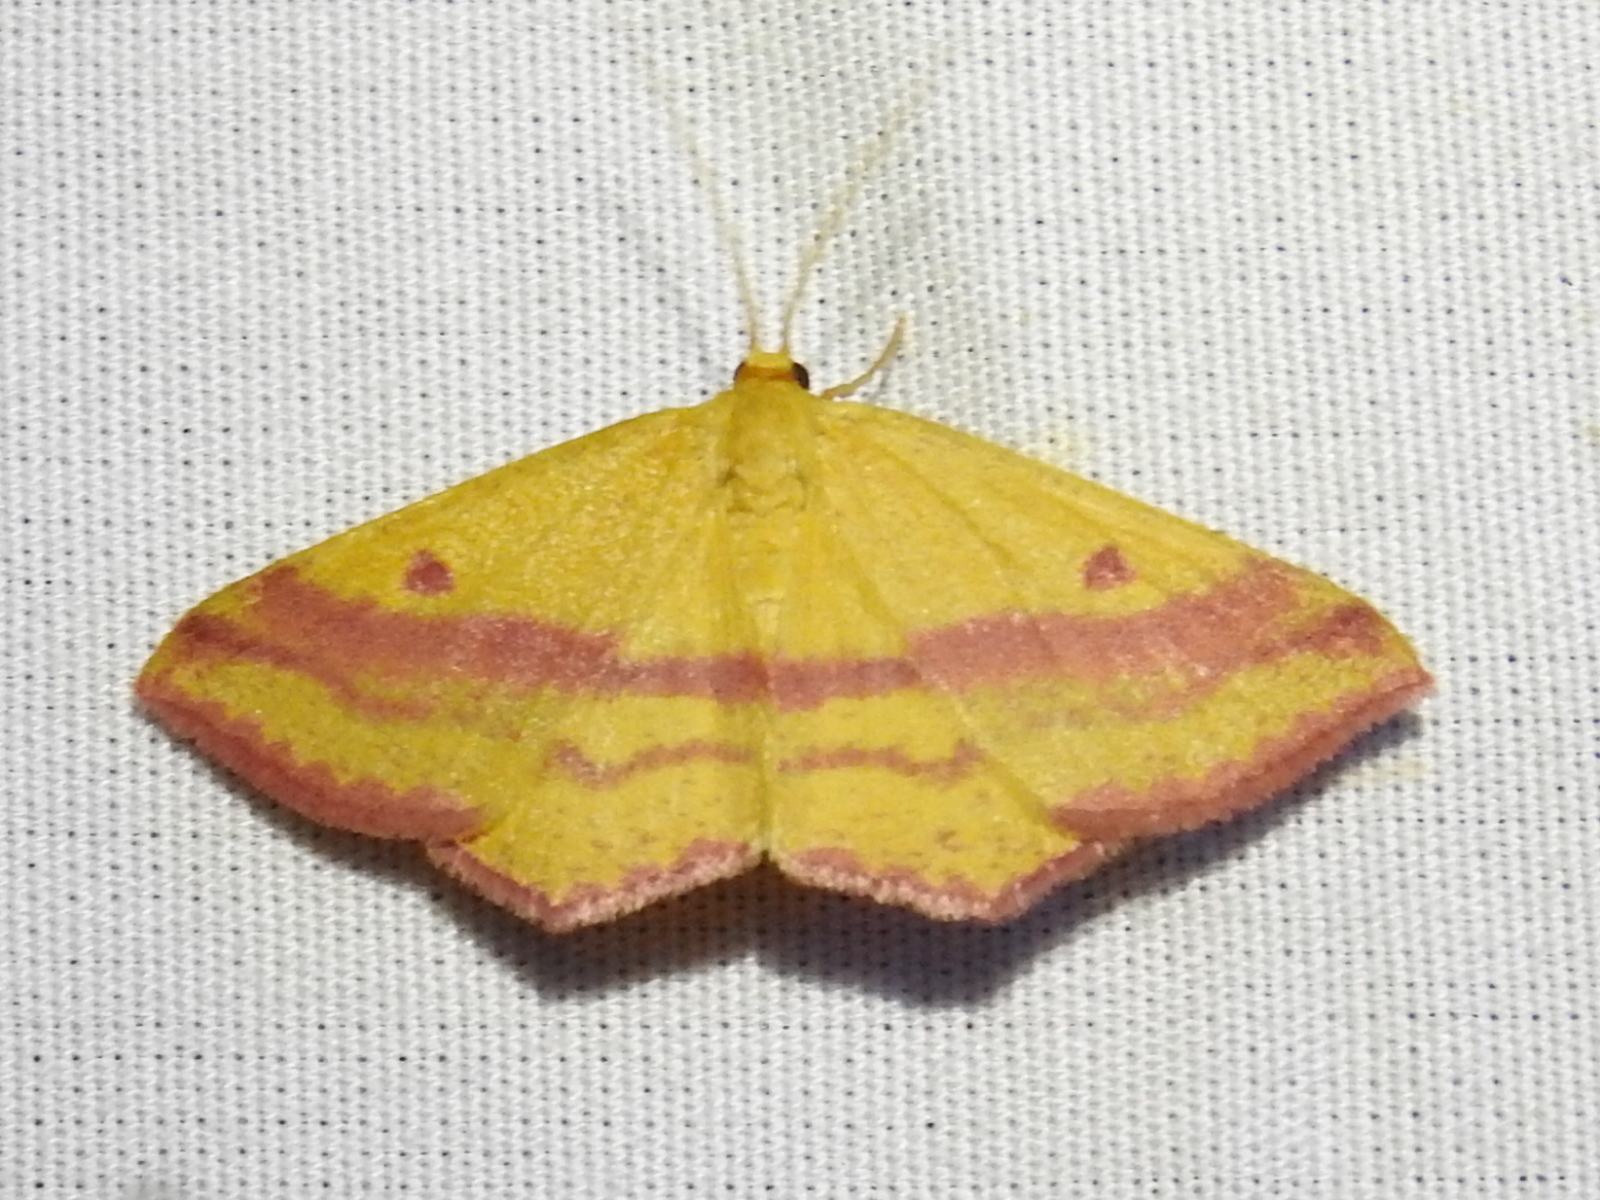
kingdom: Animalia
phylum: Arthropoda
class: Insecta
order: Lepidoptera
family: Geometridae
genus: Haematopis
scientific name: Haematopis grataria
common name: Chickweed geometer
